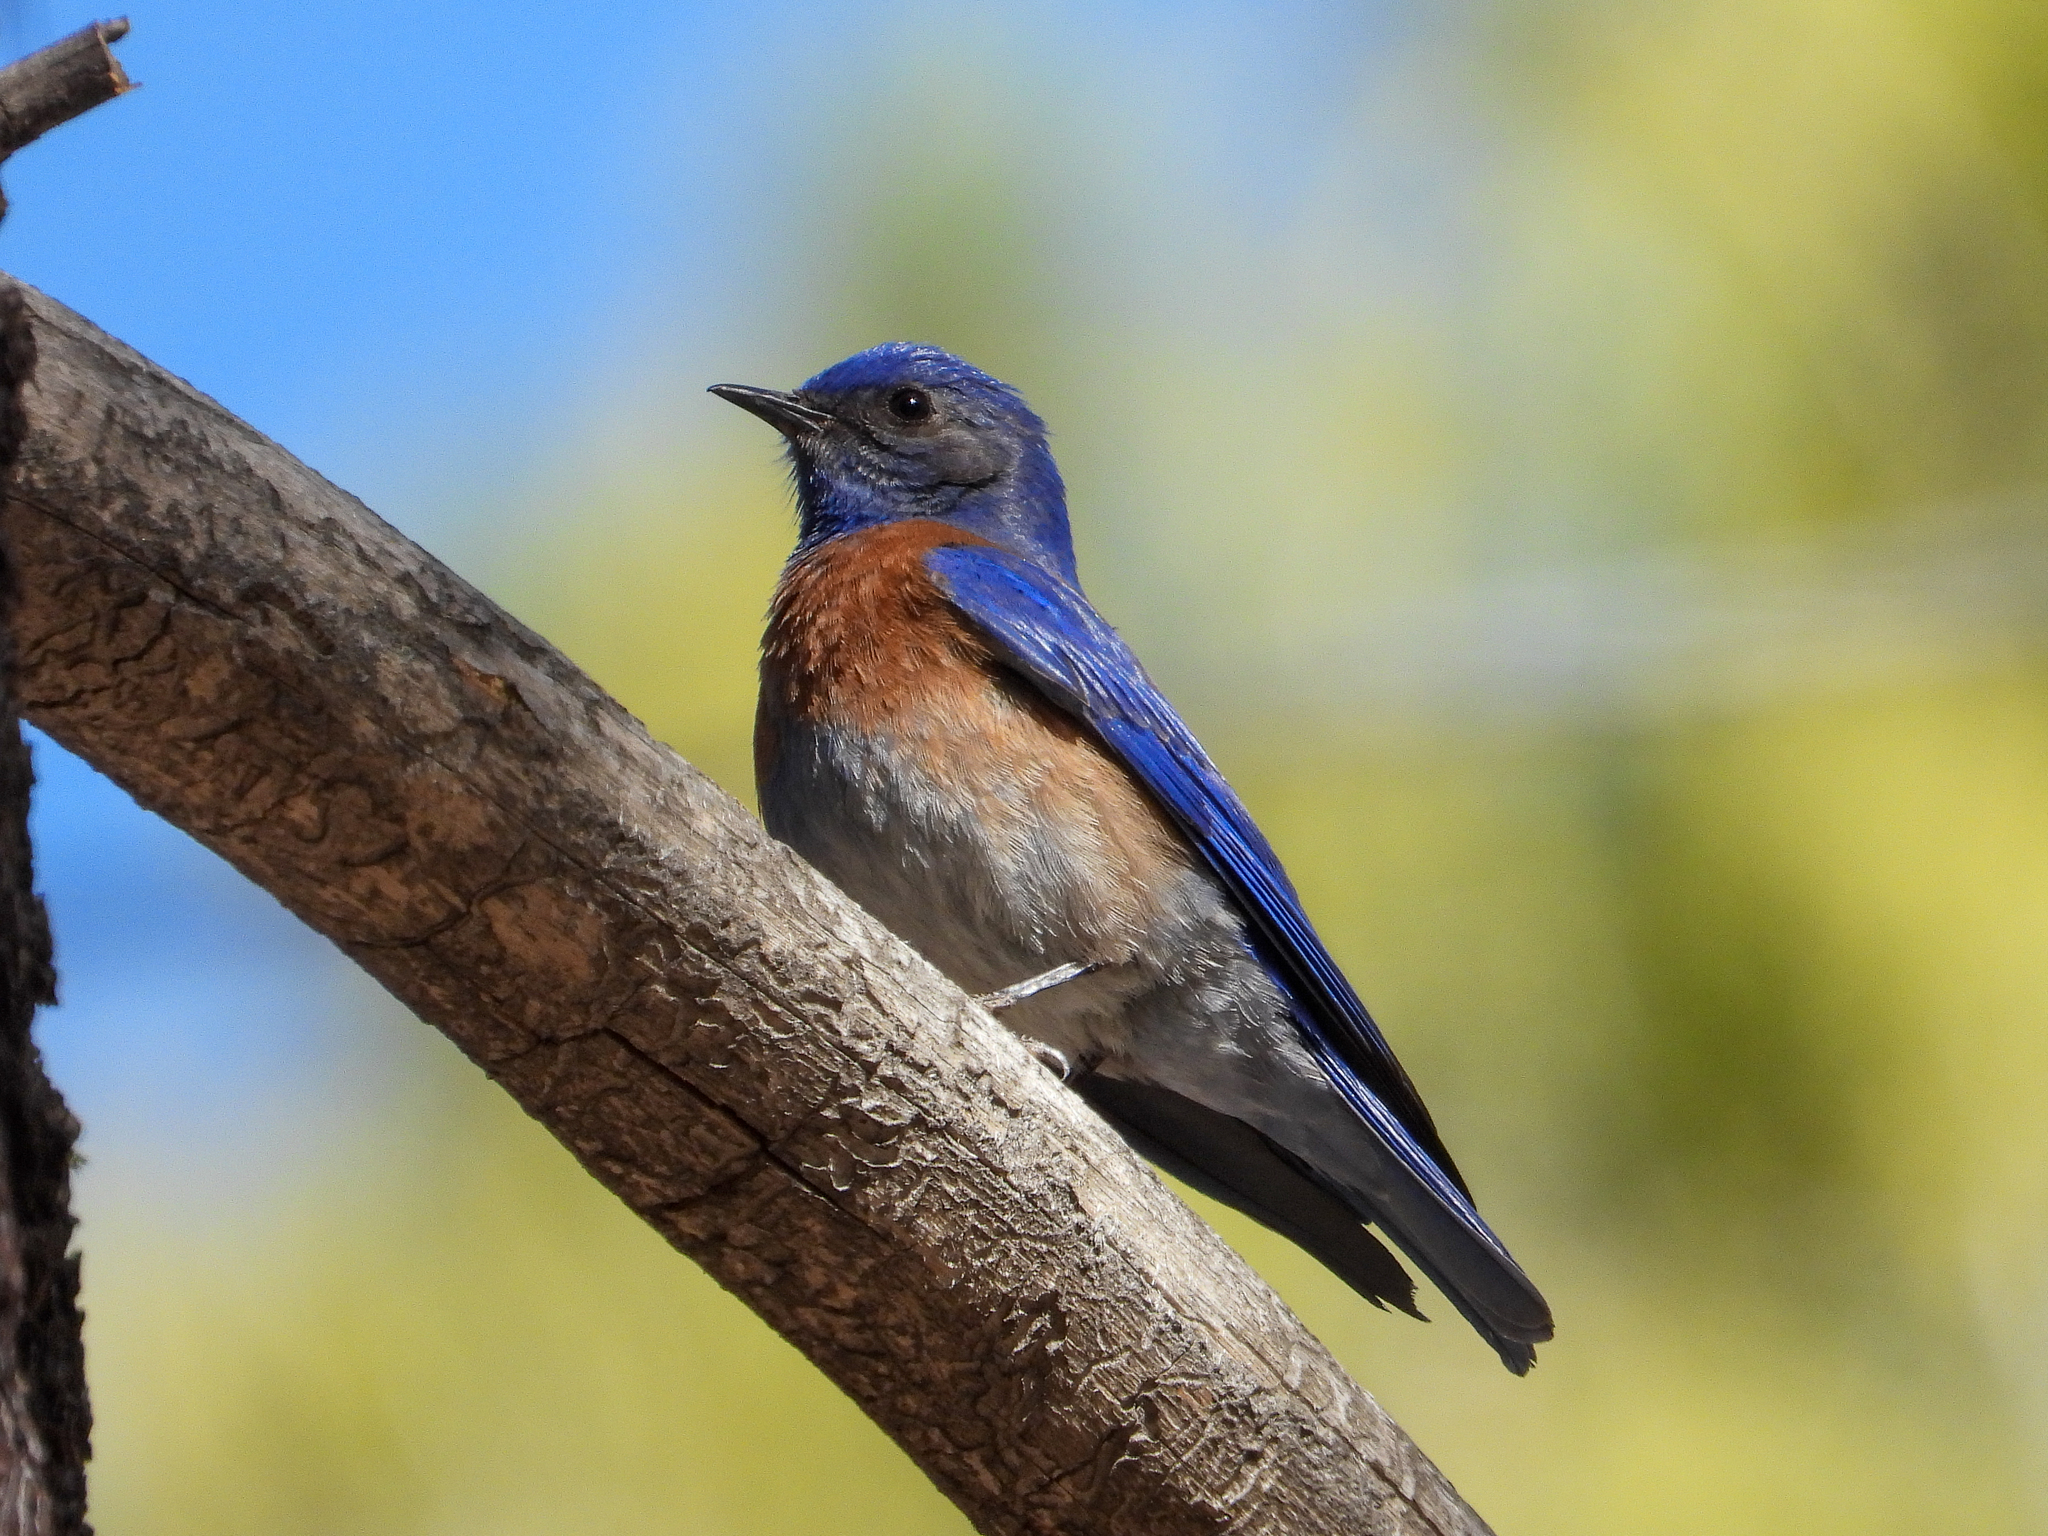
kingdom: Animalia
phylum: Chordata
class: Aves
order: Passeriformes
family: Turdidae
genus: Sialia
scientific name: Sialia mexicana
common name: Western bluebird
